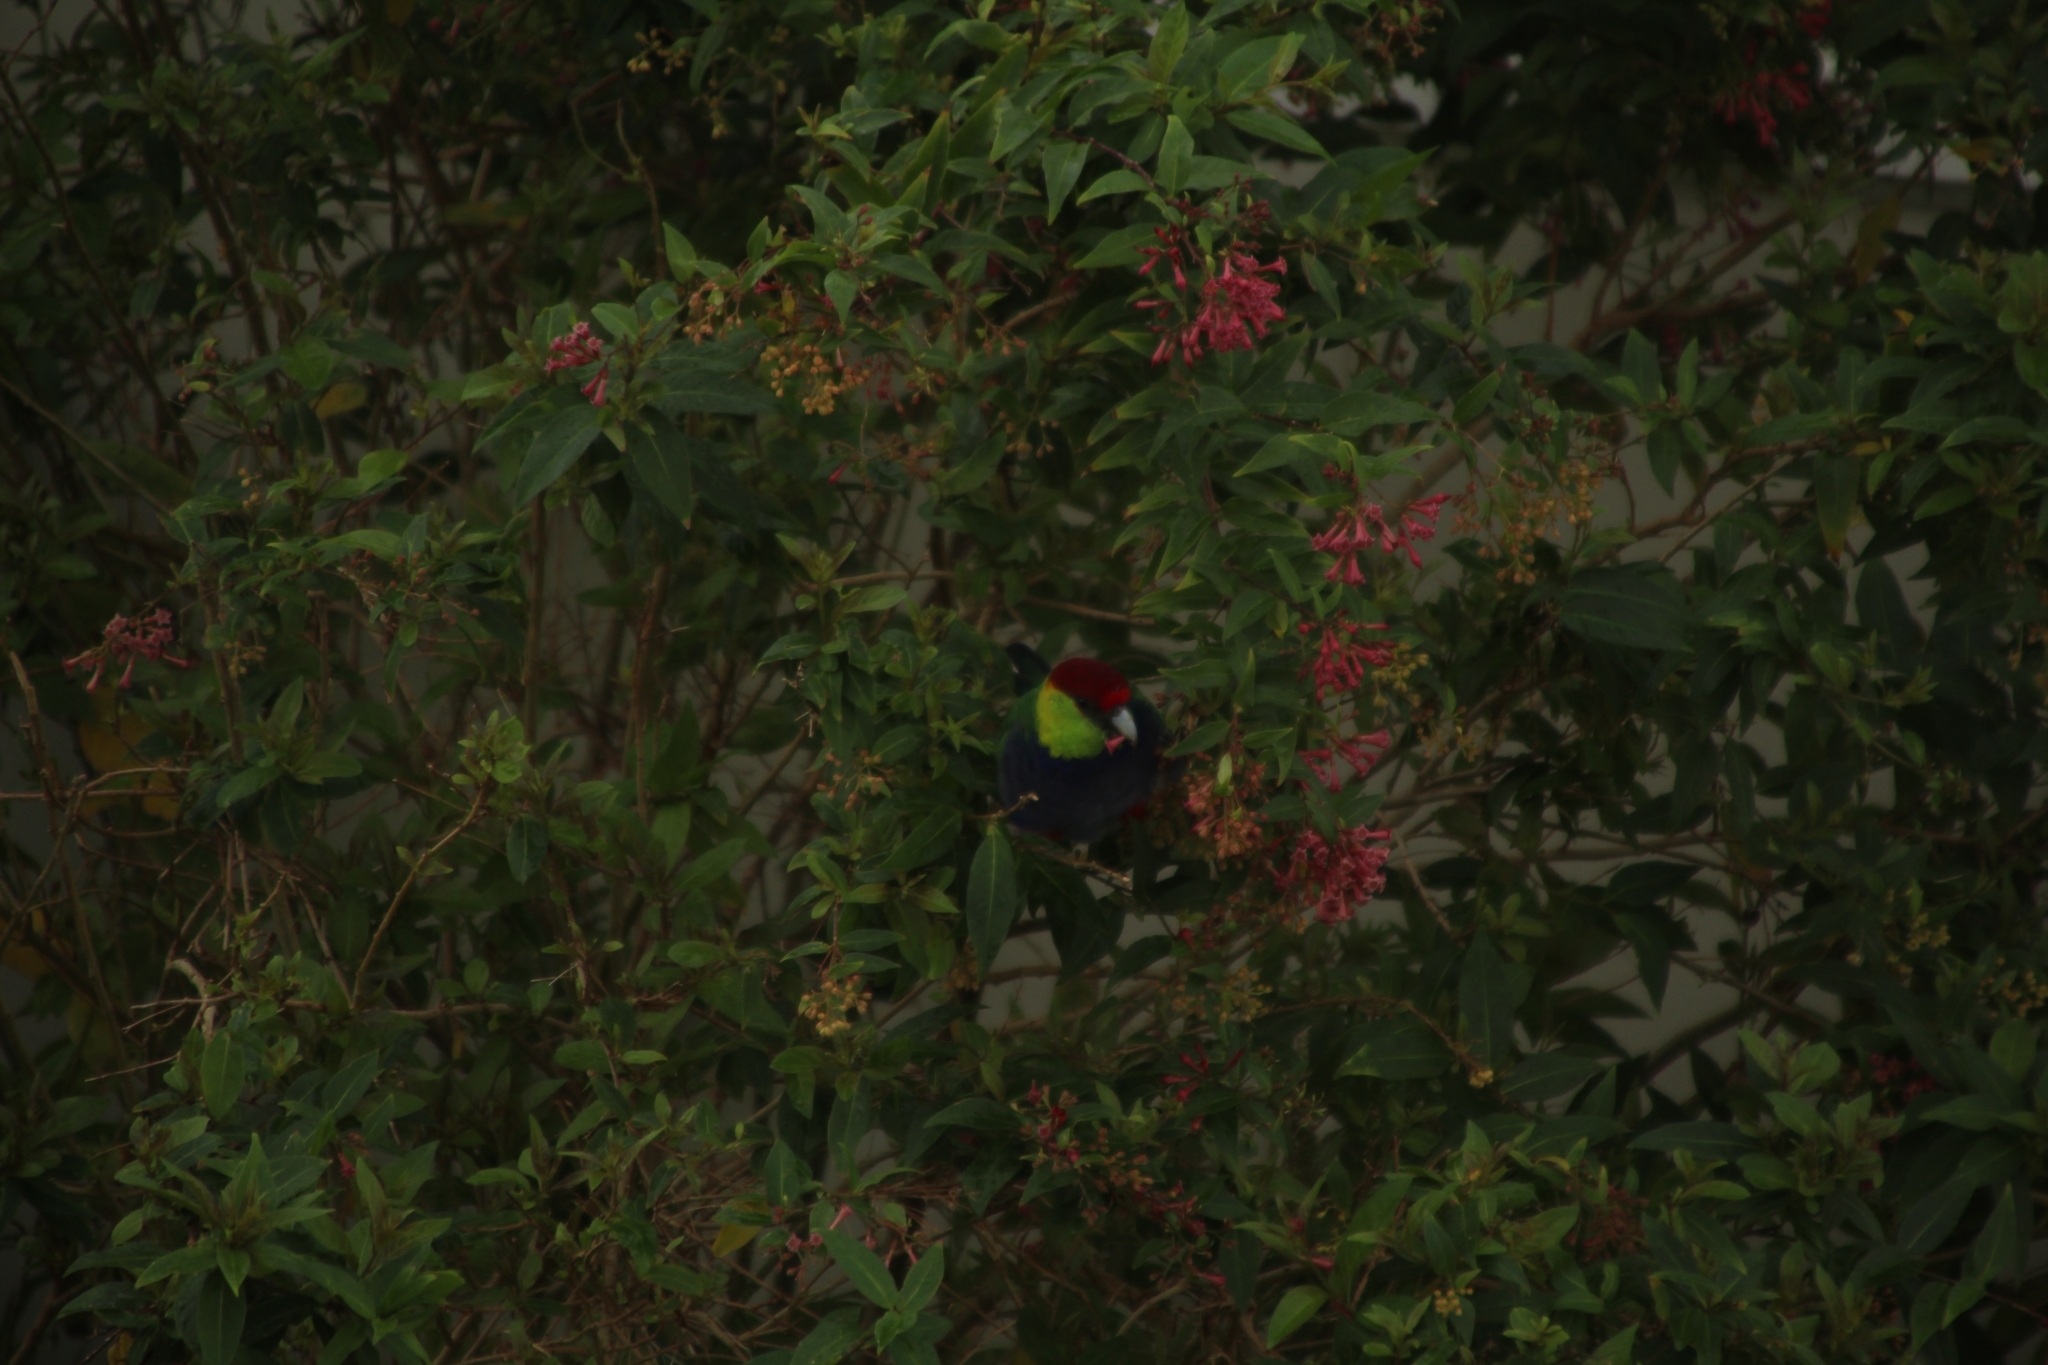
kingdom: Animalia
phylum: Chordata
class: Aves
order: Psittaciformes
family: Psittacidae
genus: Purpureicephalus
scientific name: Purpureicephalus spurius
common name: Red-capped parrot
